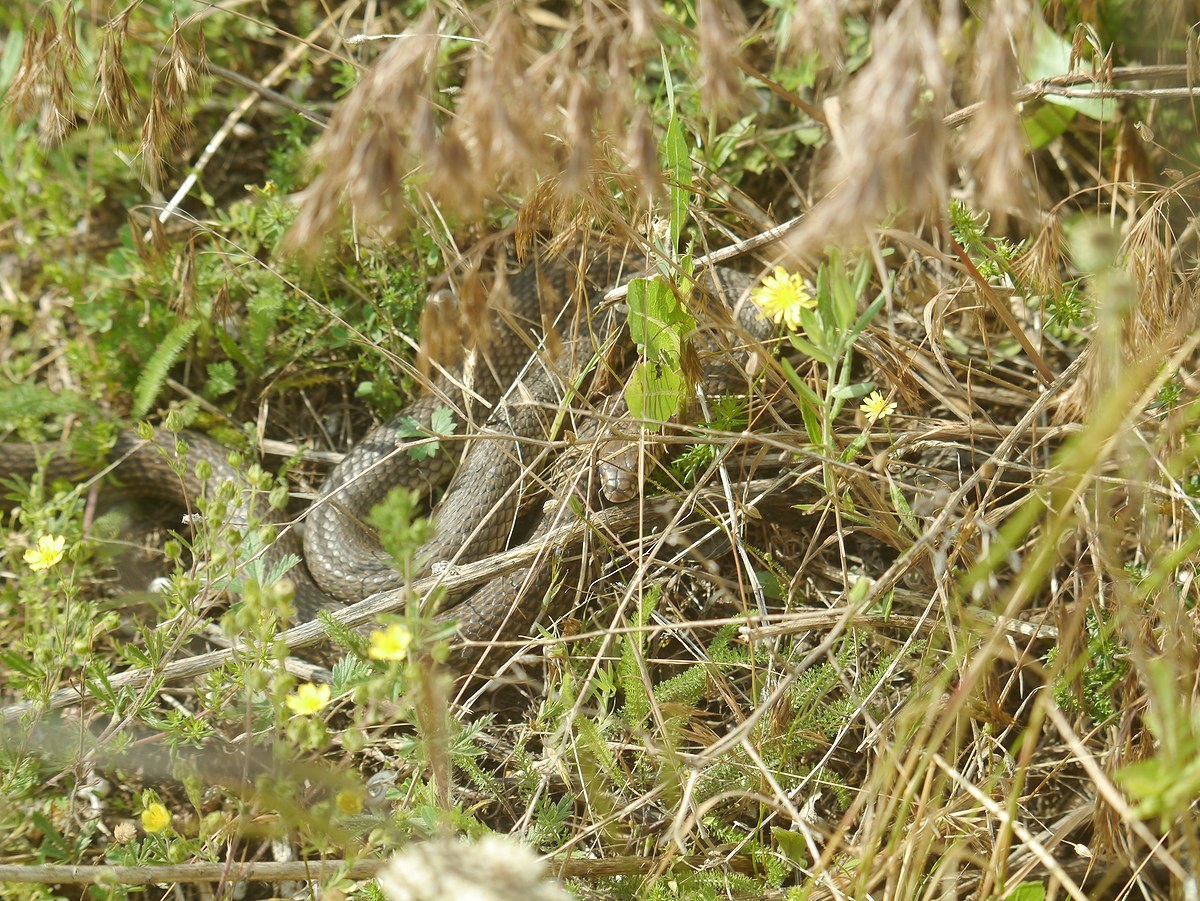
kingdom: Animalia
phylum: Chordata
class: Squamata
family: Colubridae
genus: Dolichophis
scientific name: Dolichophis caspius
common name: Large whip snake
